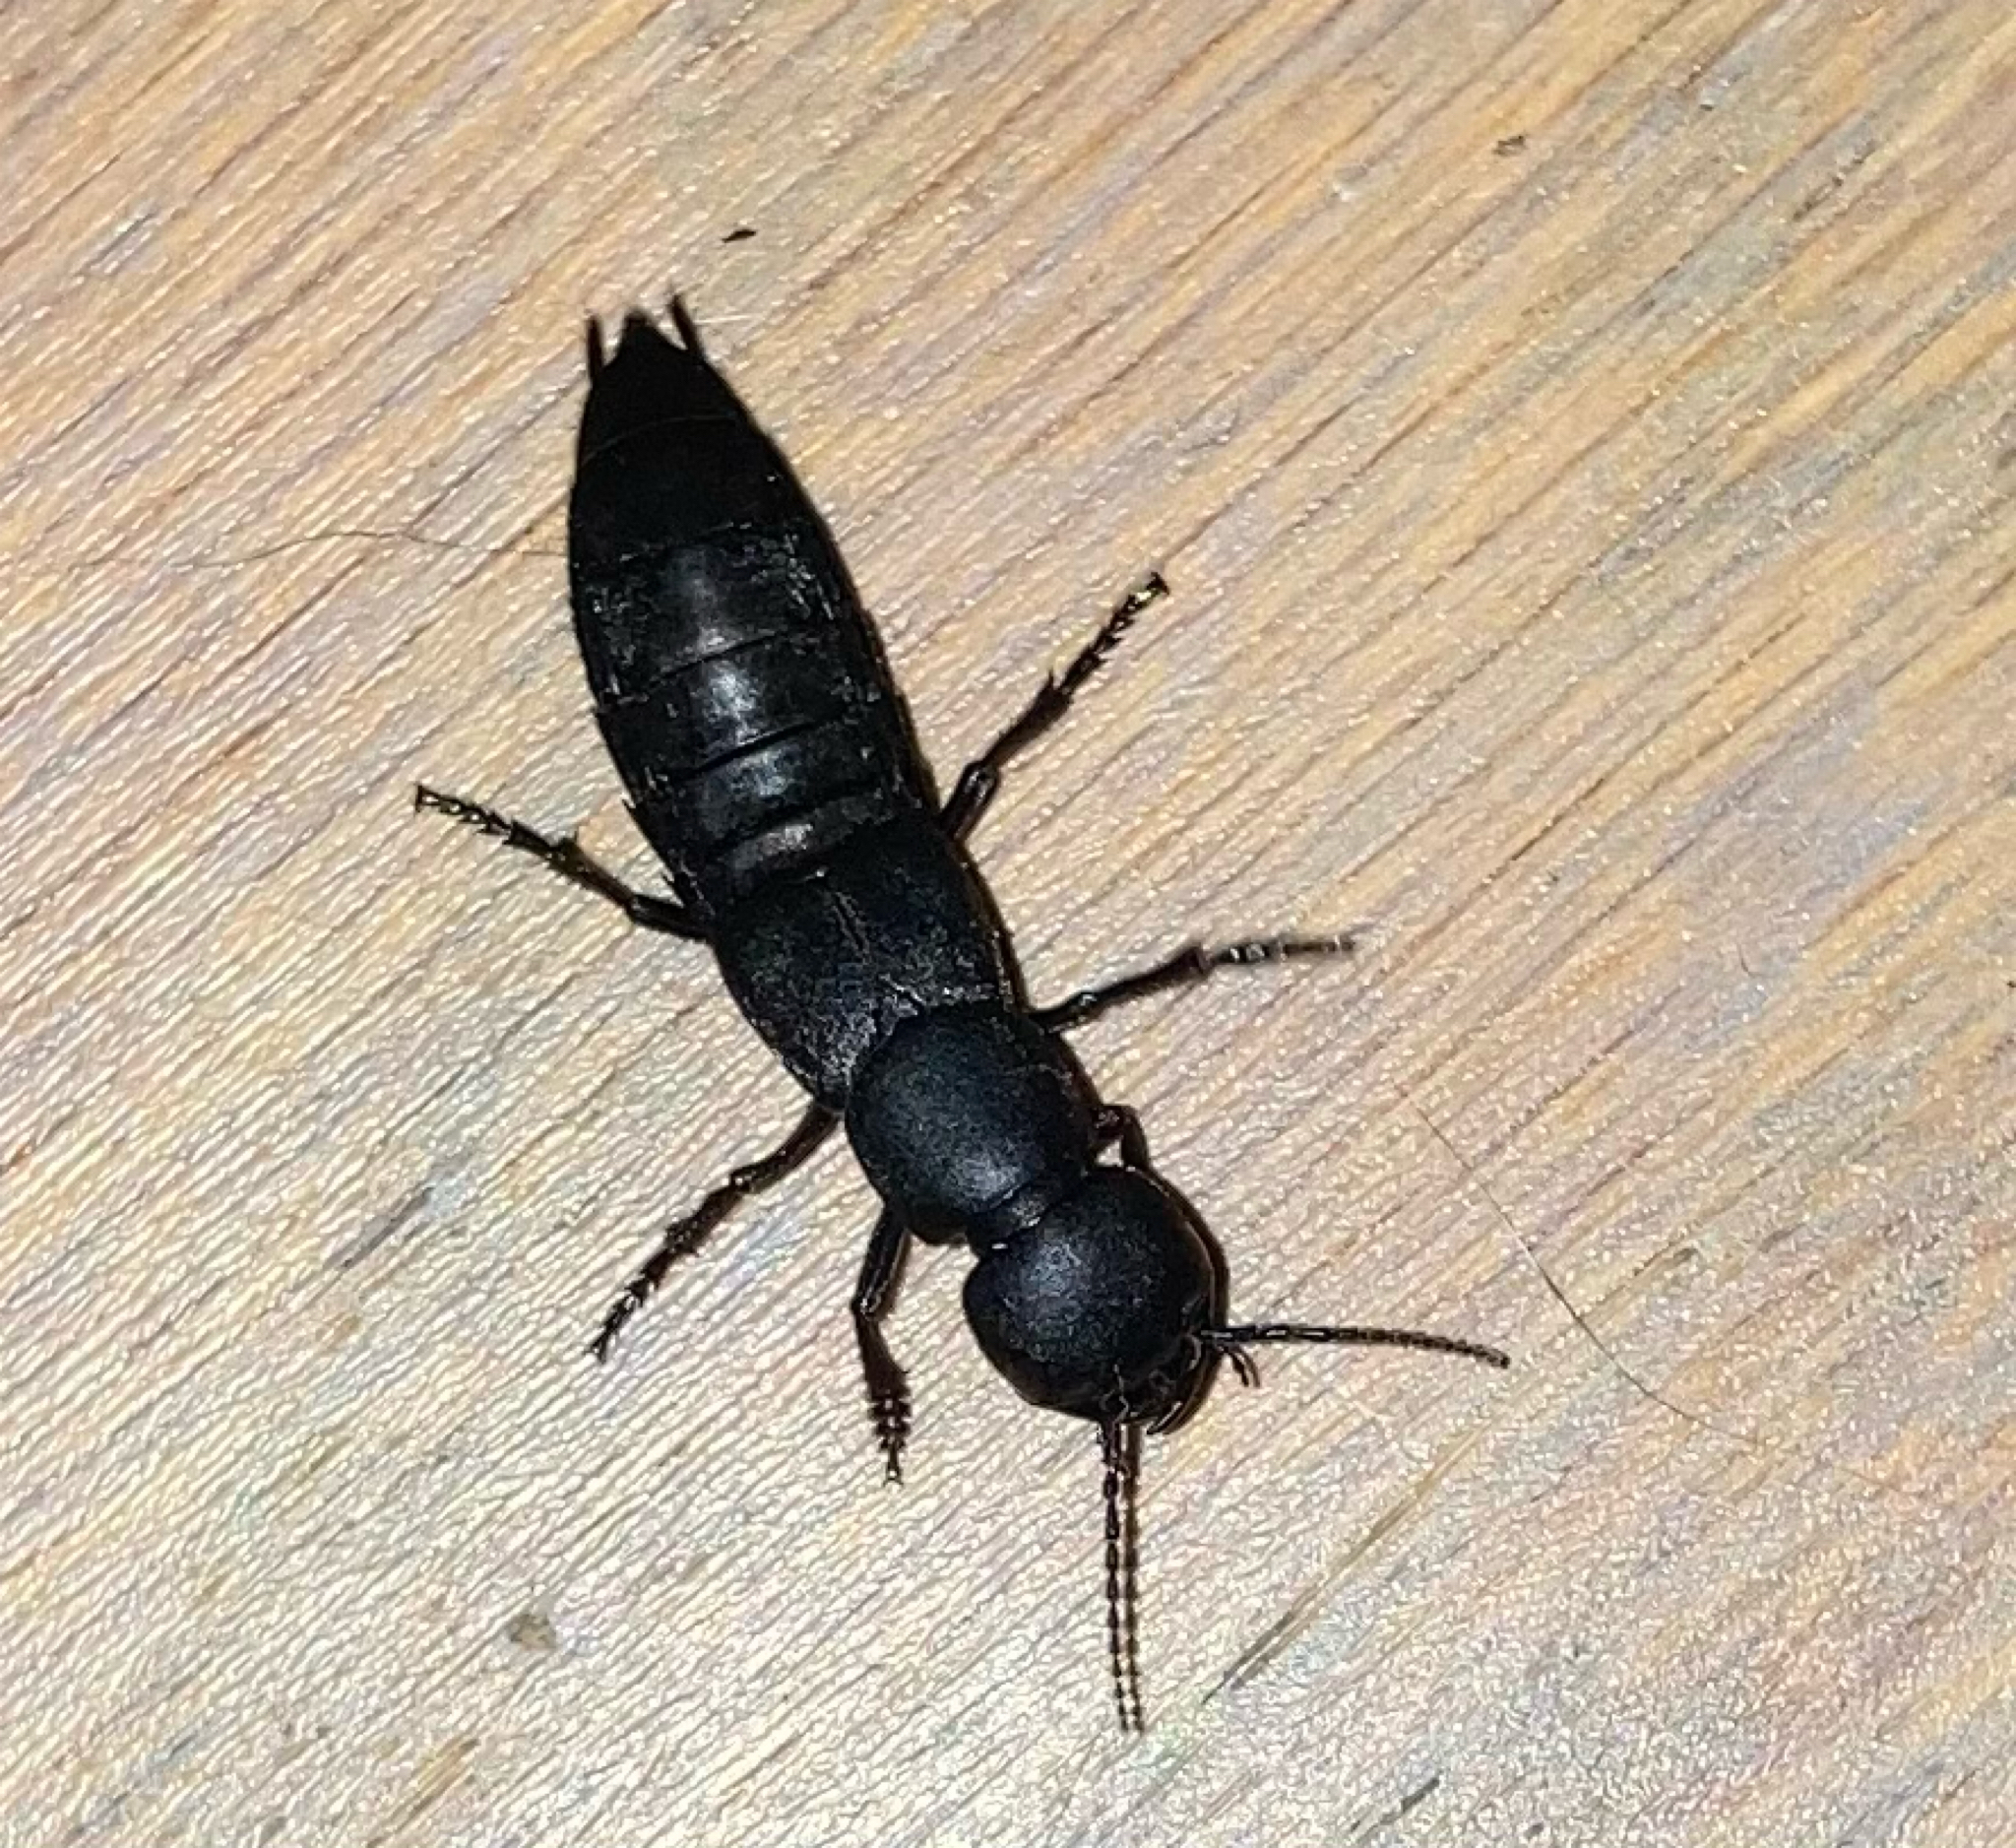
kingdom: Animalia
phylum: Arthropoda
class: Insecta
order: Coleoptera
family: Staphylinidae
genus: Ocypus
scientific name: Ocypus olens
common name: Devil's coach-horse
